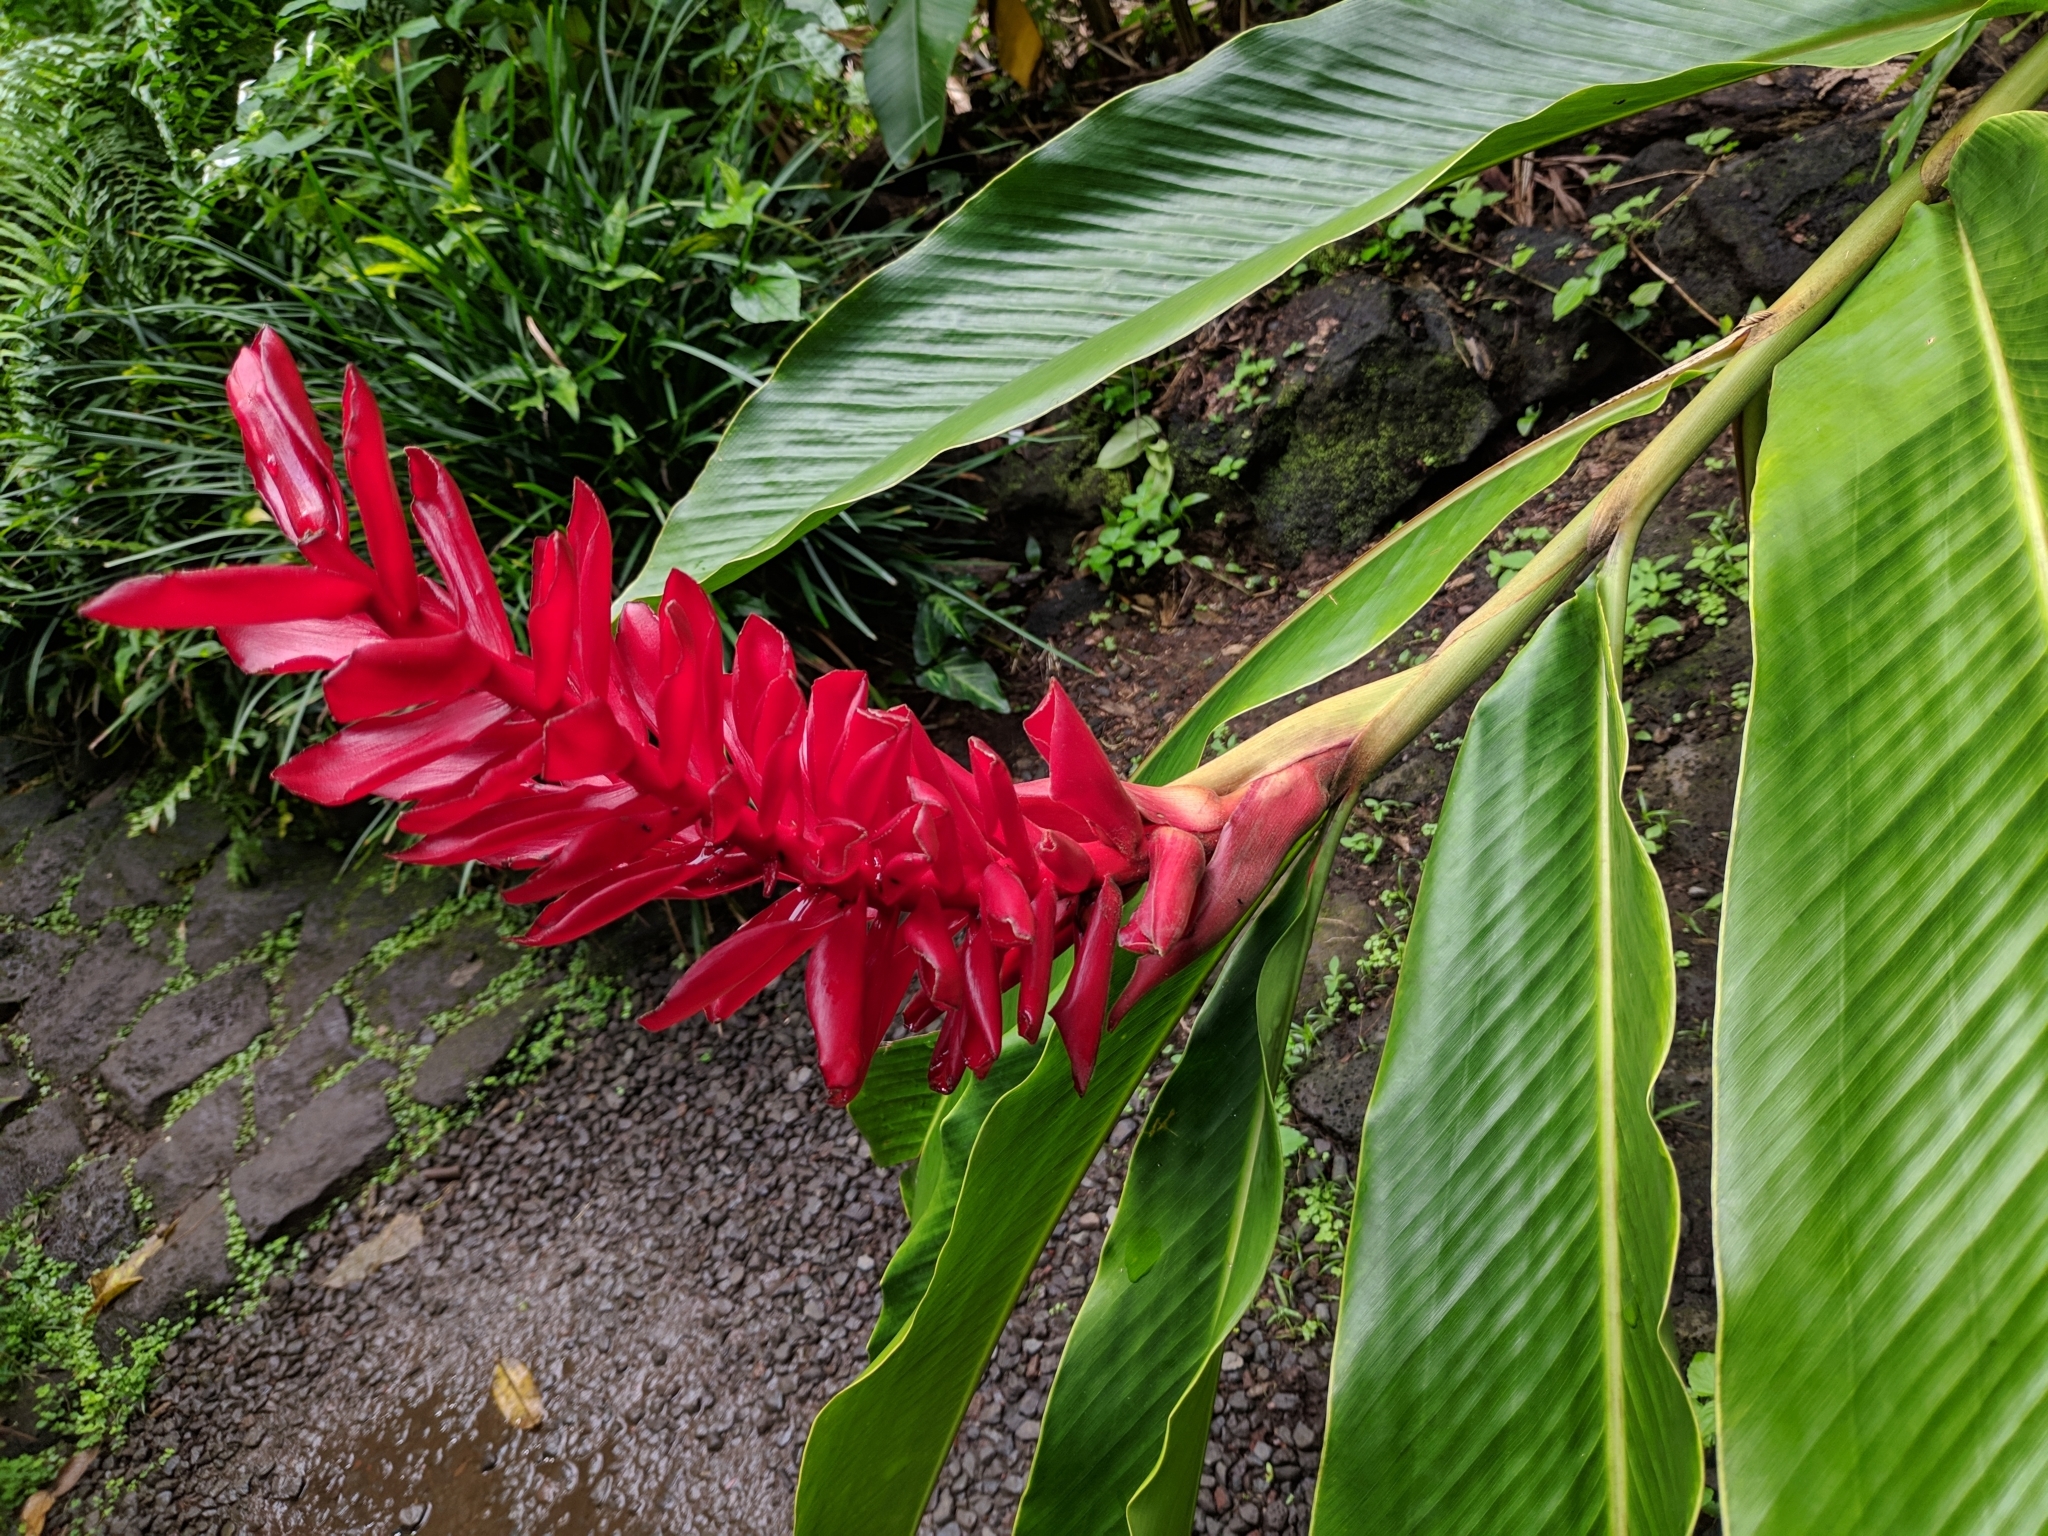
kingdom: Plantae
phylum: Tracheophyta
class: Liliopsida
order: Zingiberales
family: Zingiberaceae
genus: Alpinia
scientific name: Alpinia purpurata
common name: Red ginger
